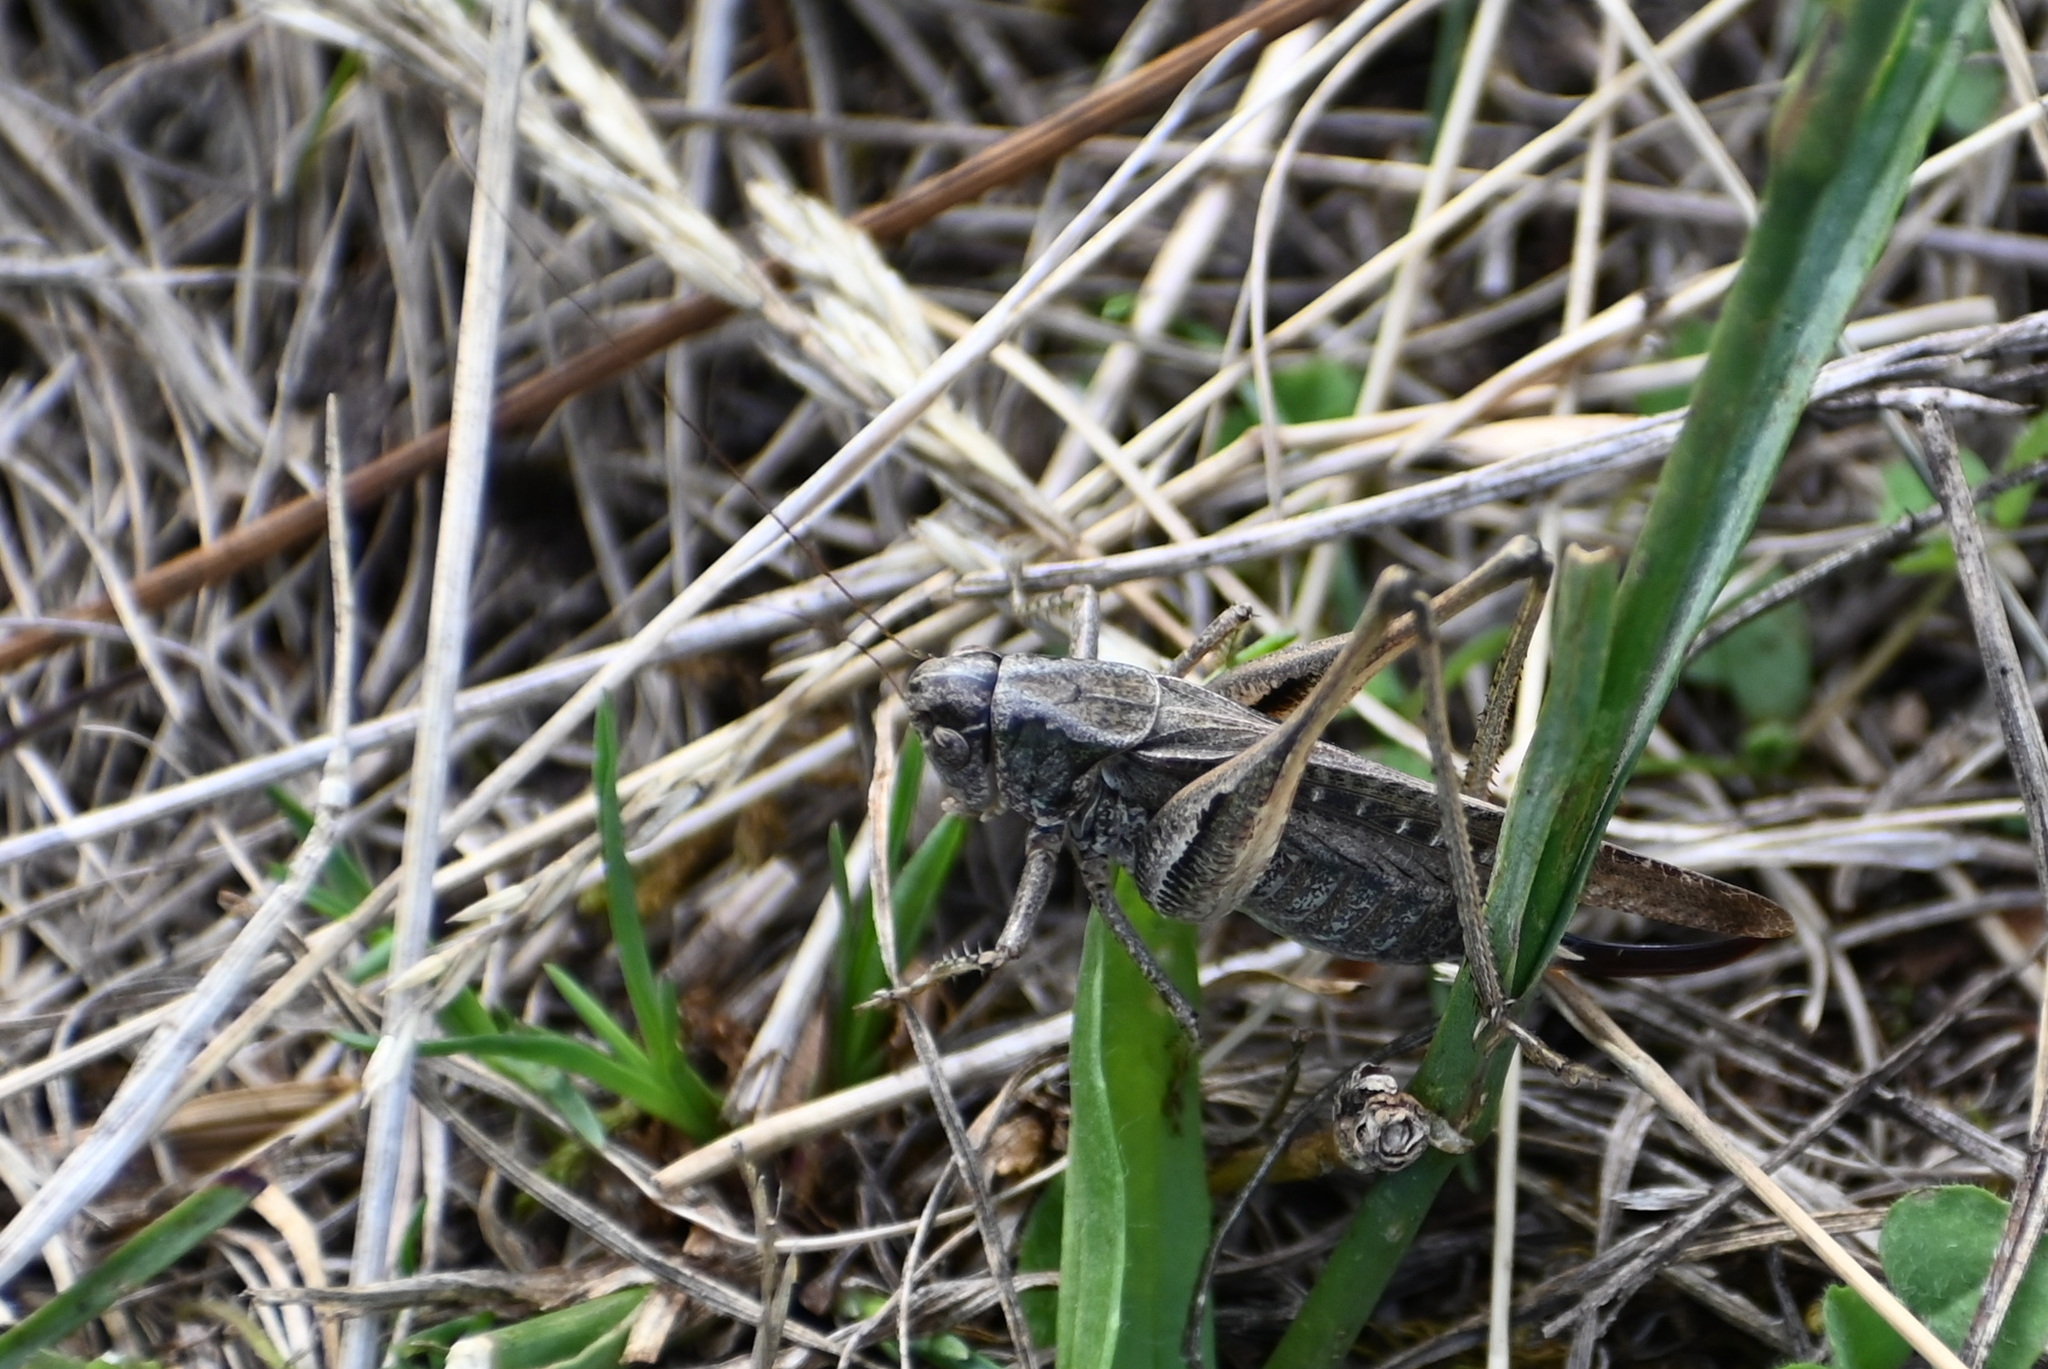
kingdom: Animalia
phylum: Arthropoda
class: Insecta
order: Orthoptera
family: Tettigoniidae
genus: Platycleis
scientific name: Platycleis albopunctata
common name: Grey bush-cricket
